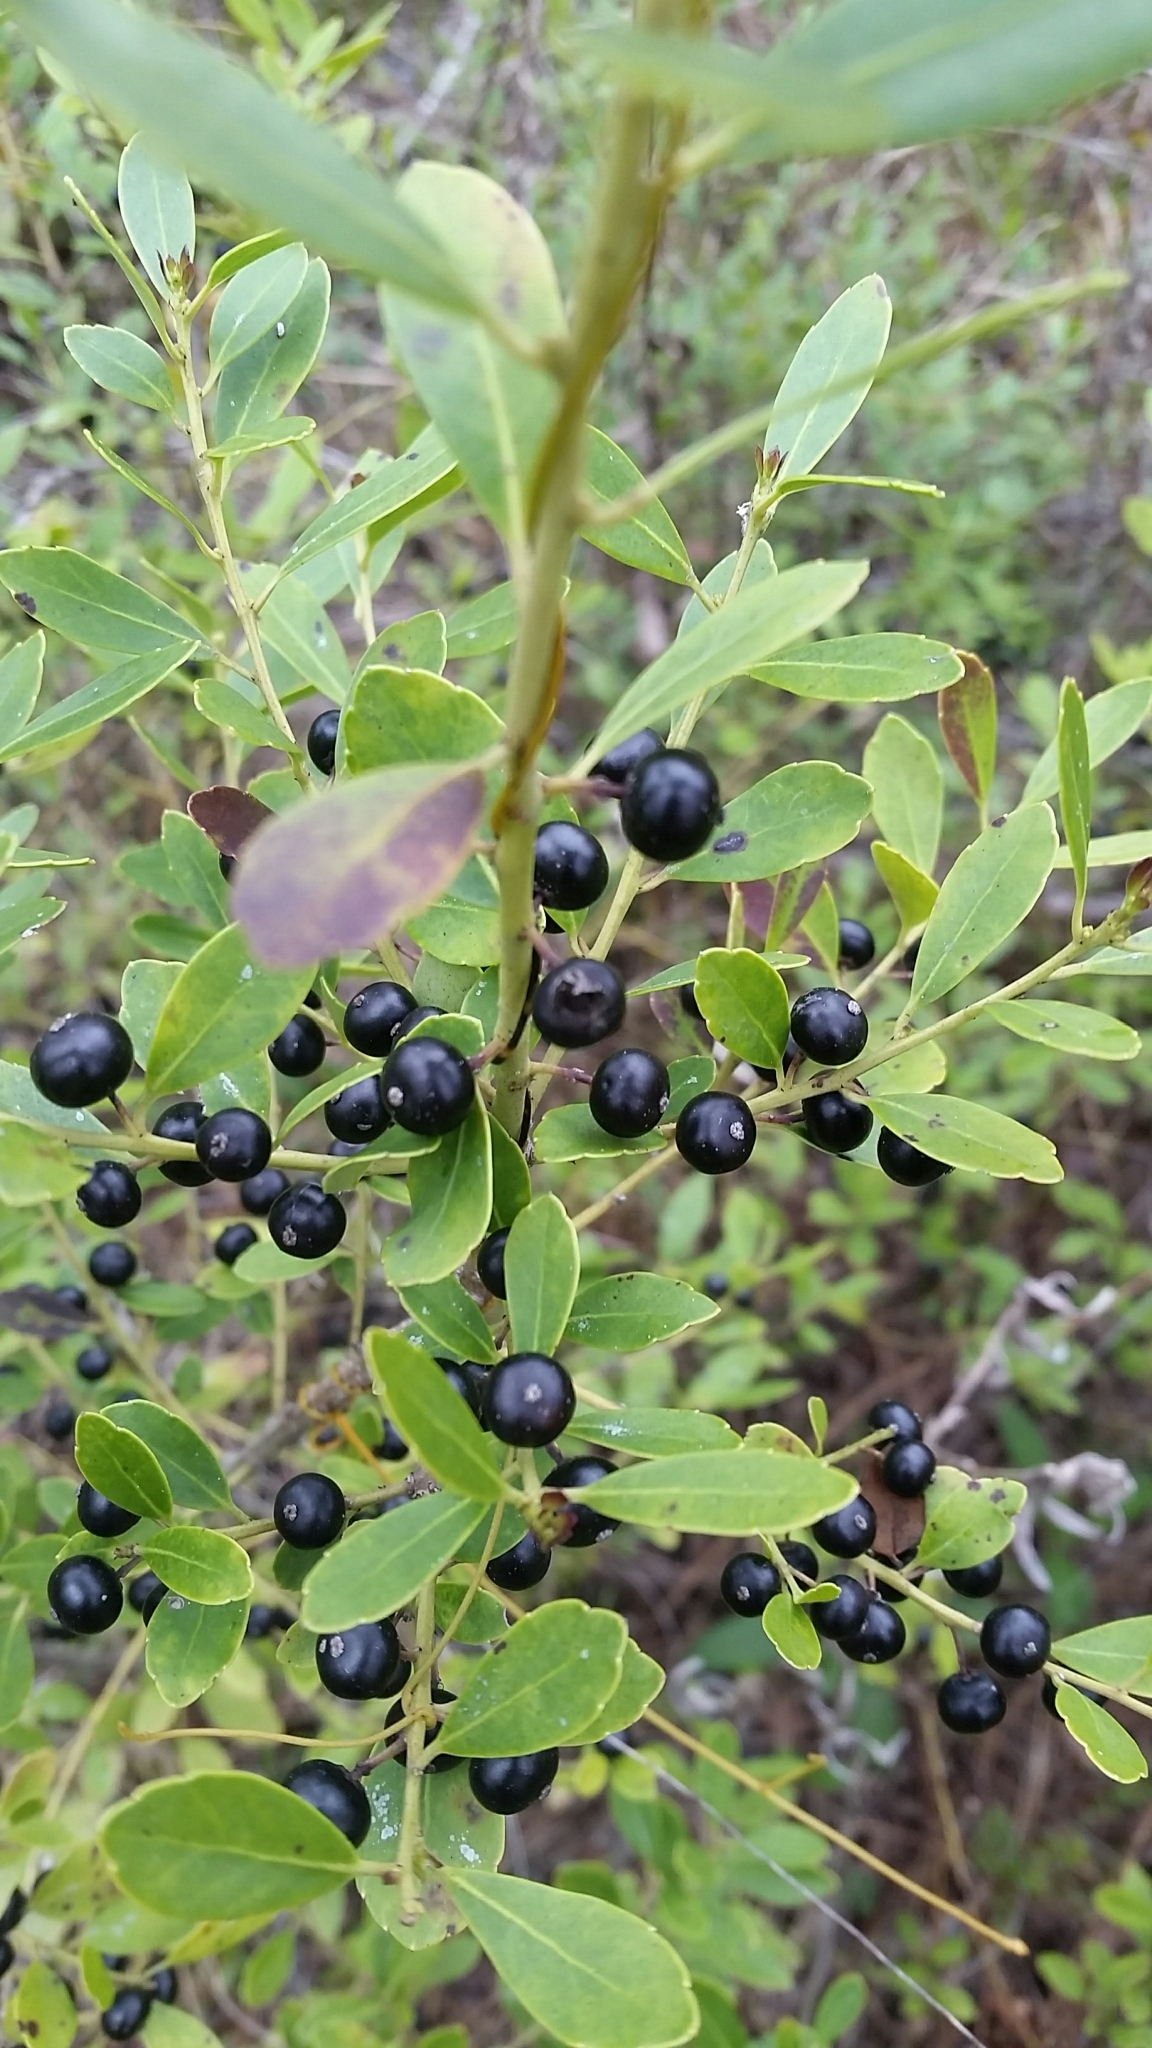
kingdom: Plantae
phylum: Tracheophyta
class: Magnoliopsida
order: Aquifoliales
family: Aquifoliaceae
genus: Ilex
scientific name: Ilex glabra
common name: Bitter gallberry
